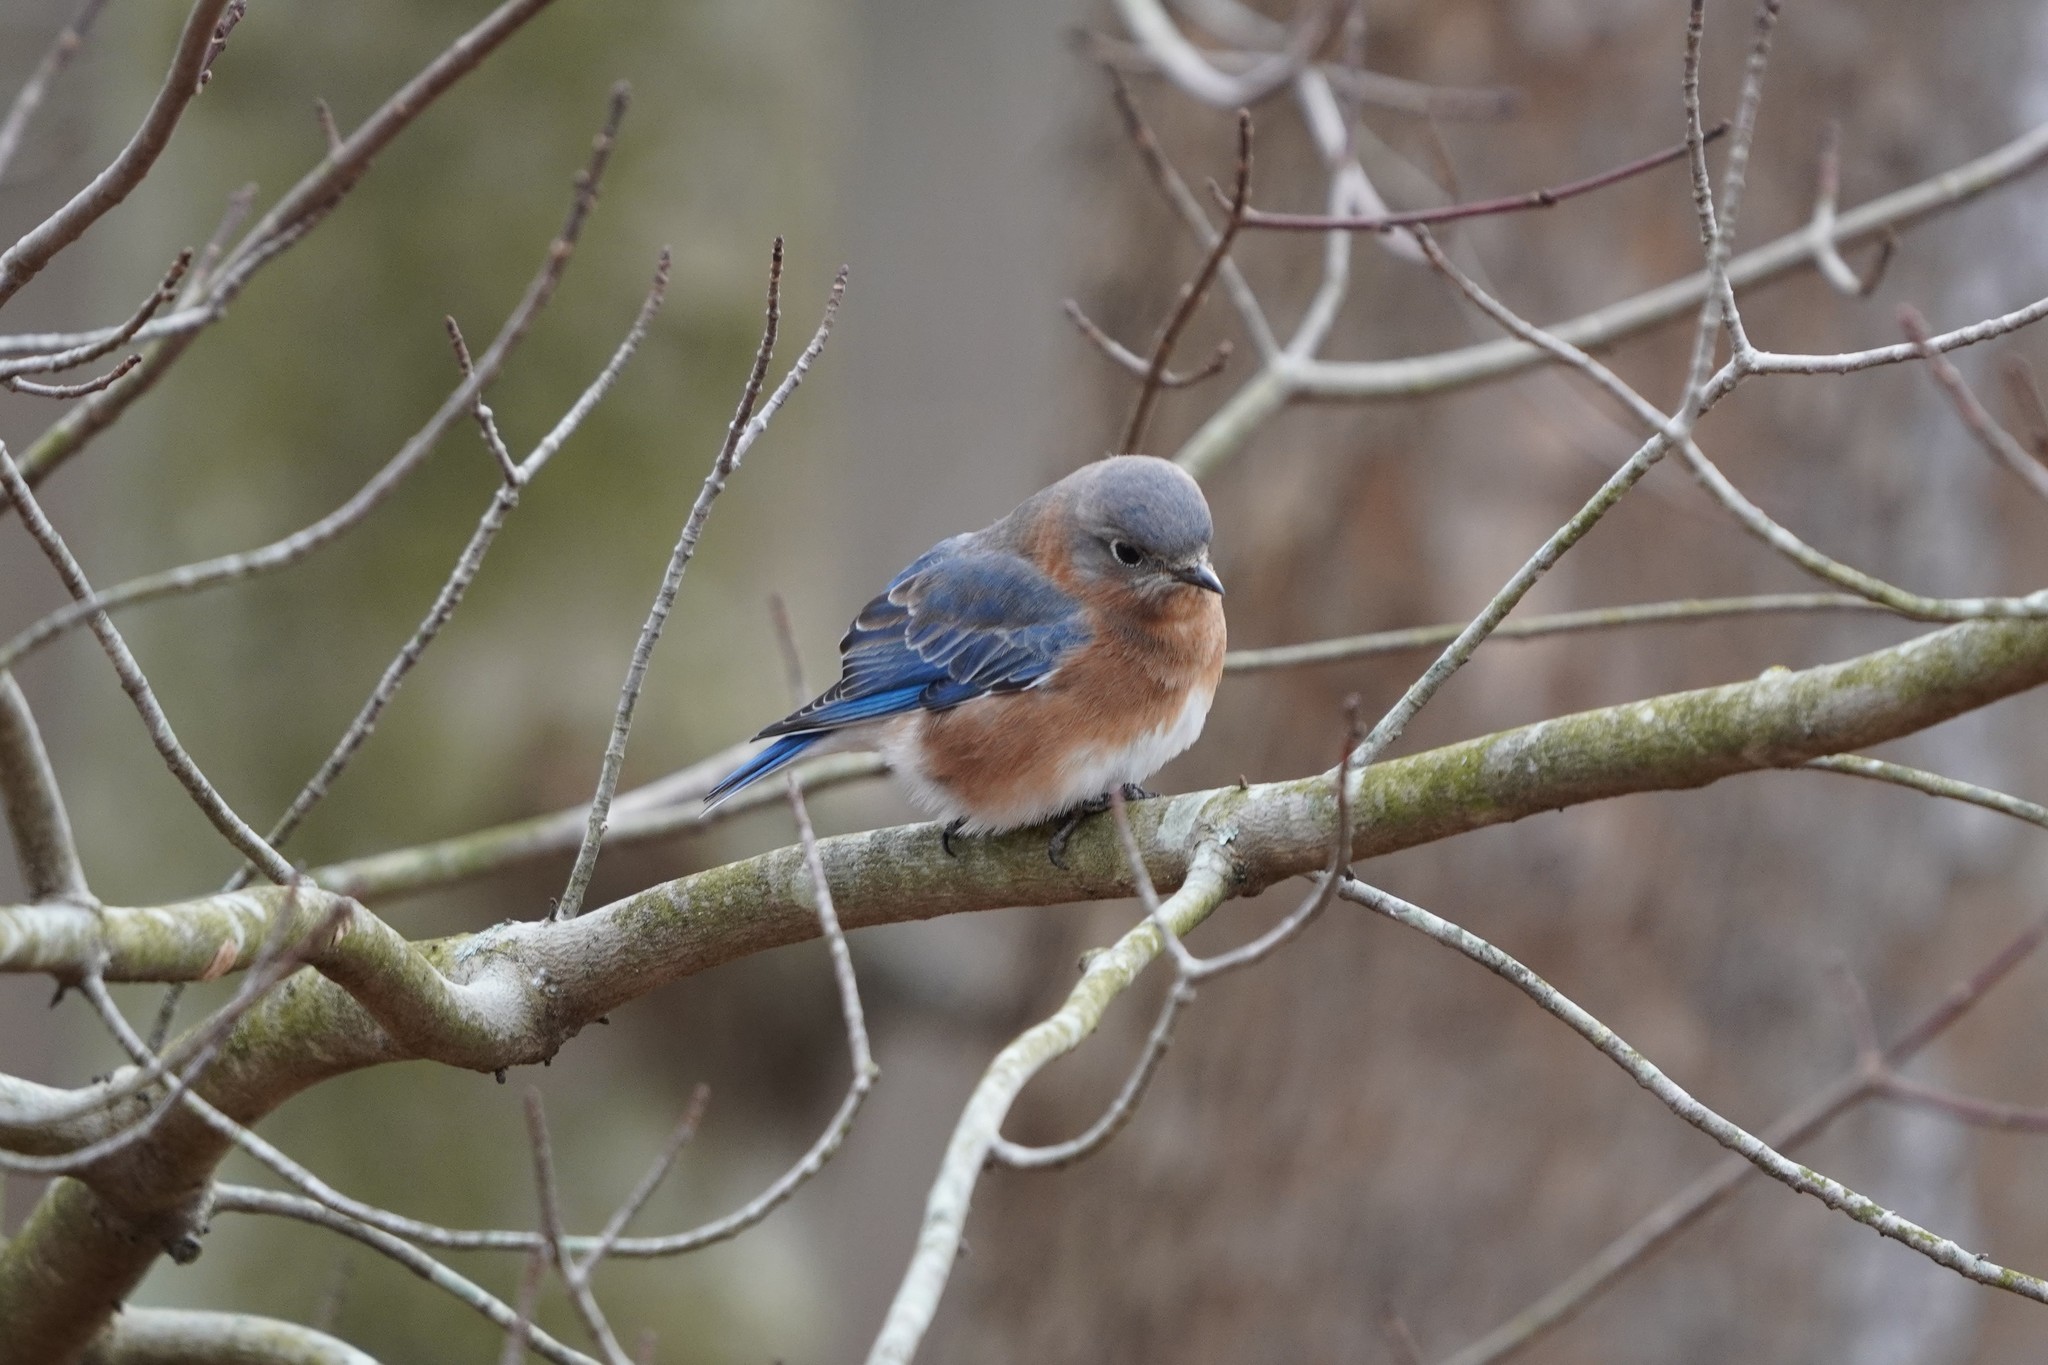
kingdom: Animalia
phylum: Chordata
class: Aves
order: Passeriformes
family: Turdidae
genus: Sialia
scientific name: Sialia sialis
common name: Eastern bluebird
